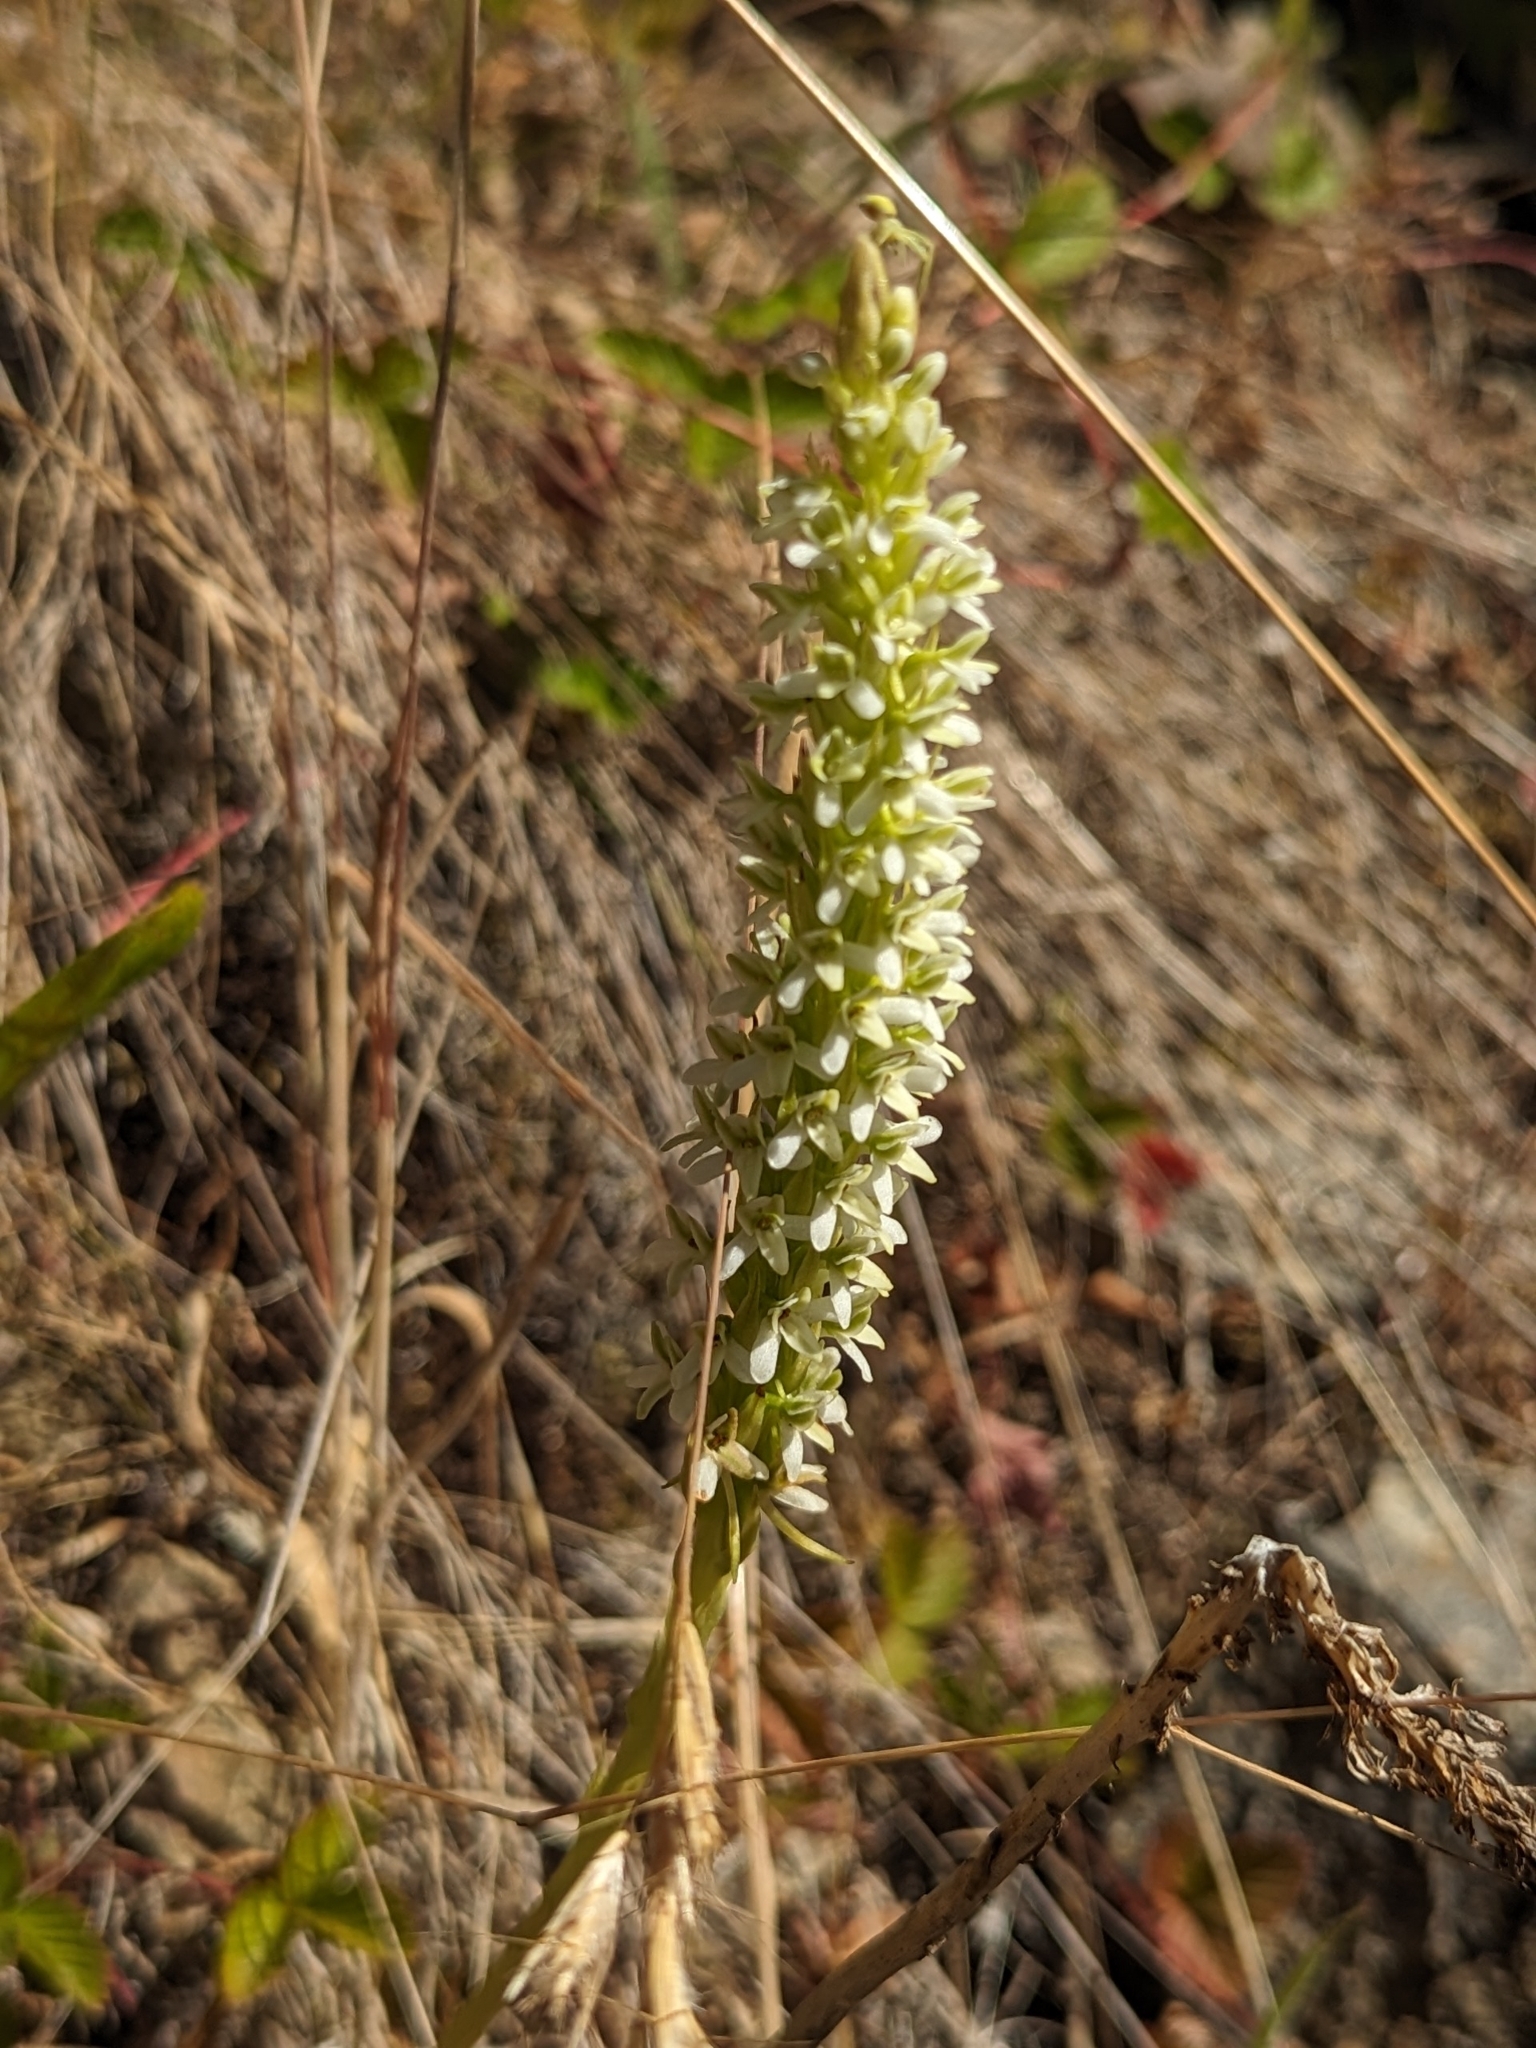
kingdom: Plantae
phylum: Tracheophyta
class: Liliopsida
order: Asparagales
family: Orchidaceae
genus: Platanthera
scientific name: Platanthera elegans
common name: Coast piperia
